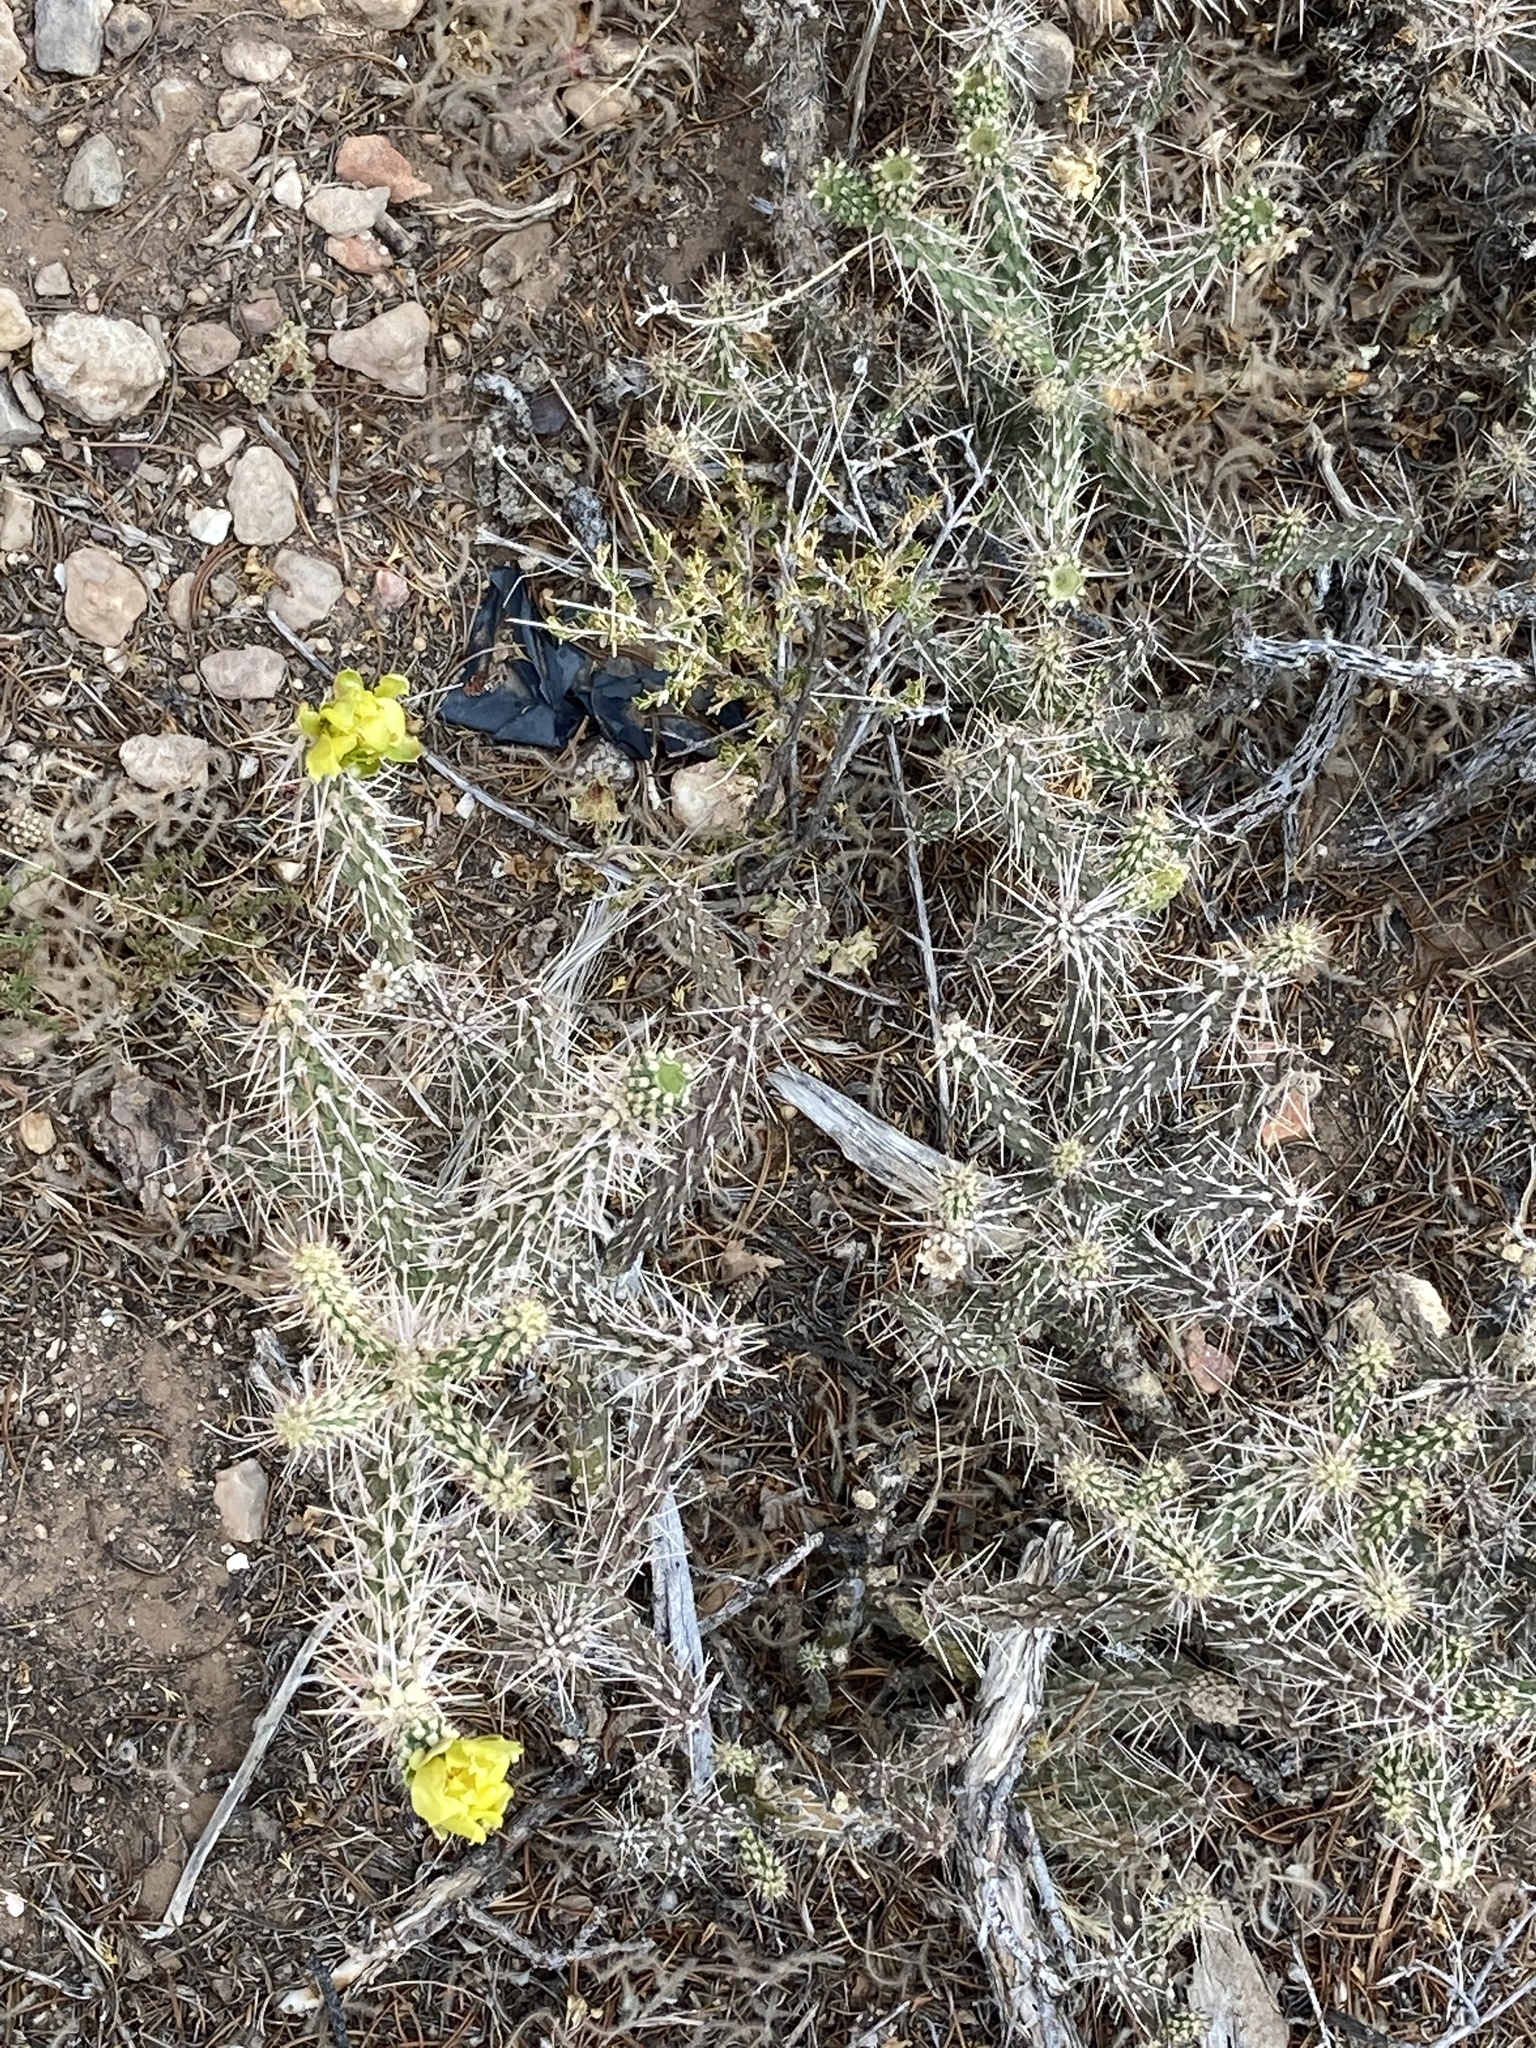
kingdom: Plantae
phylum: Tracheophyta
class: Magnoliopsida
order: Caryophyllales
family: Cactaceae
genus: Cylindropuntia
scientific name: Cylindropuntia whipplei
